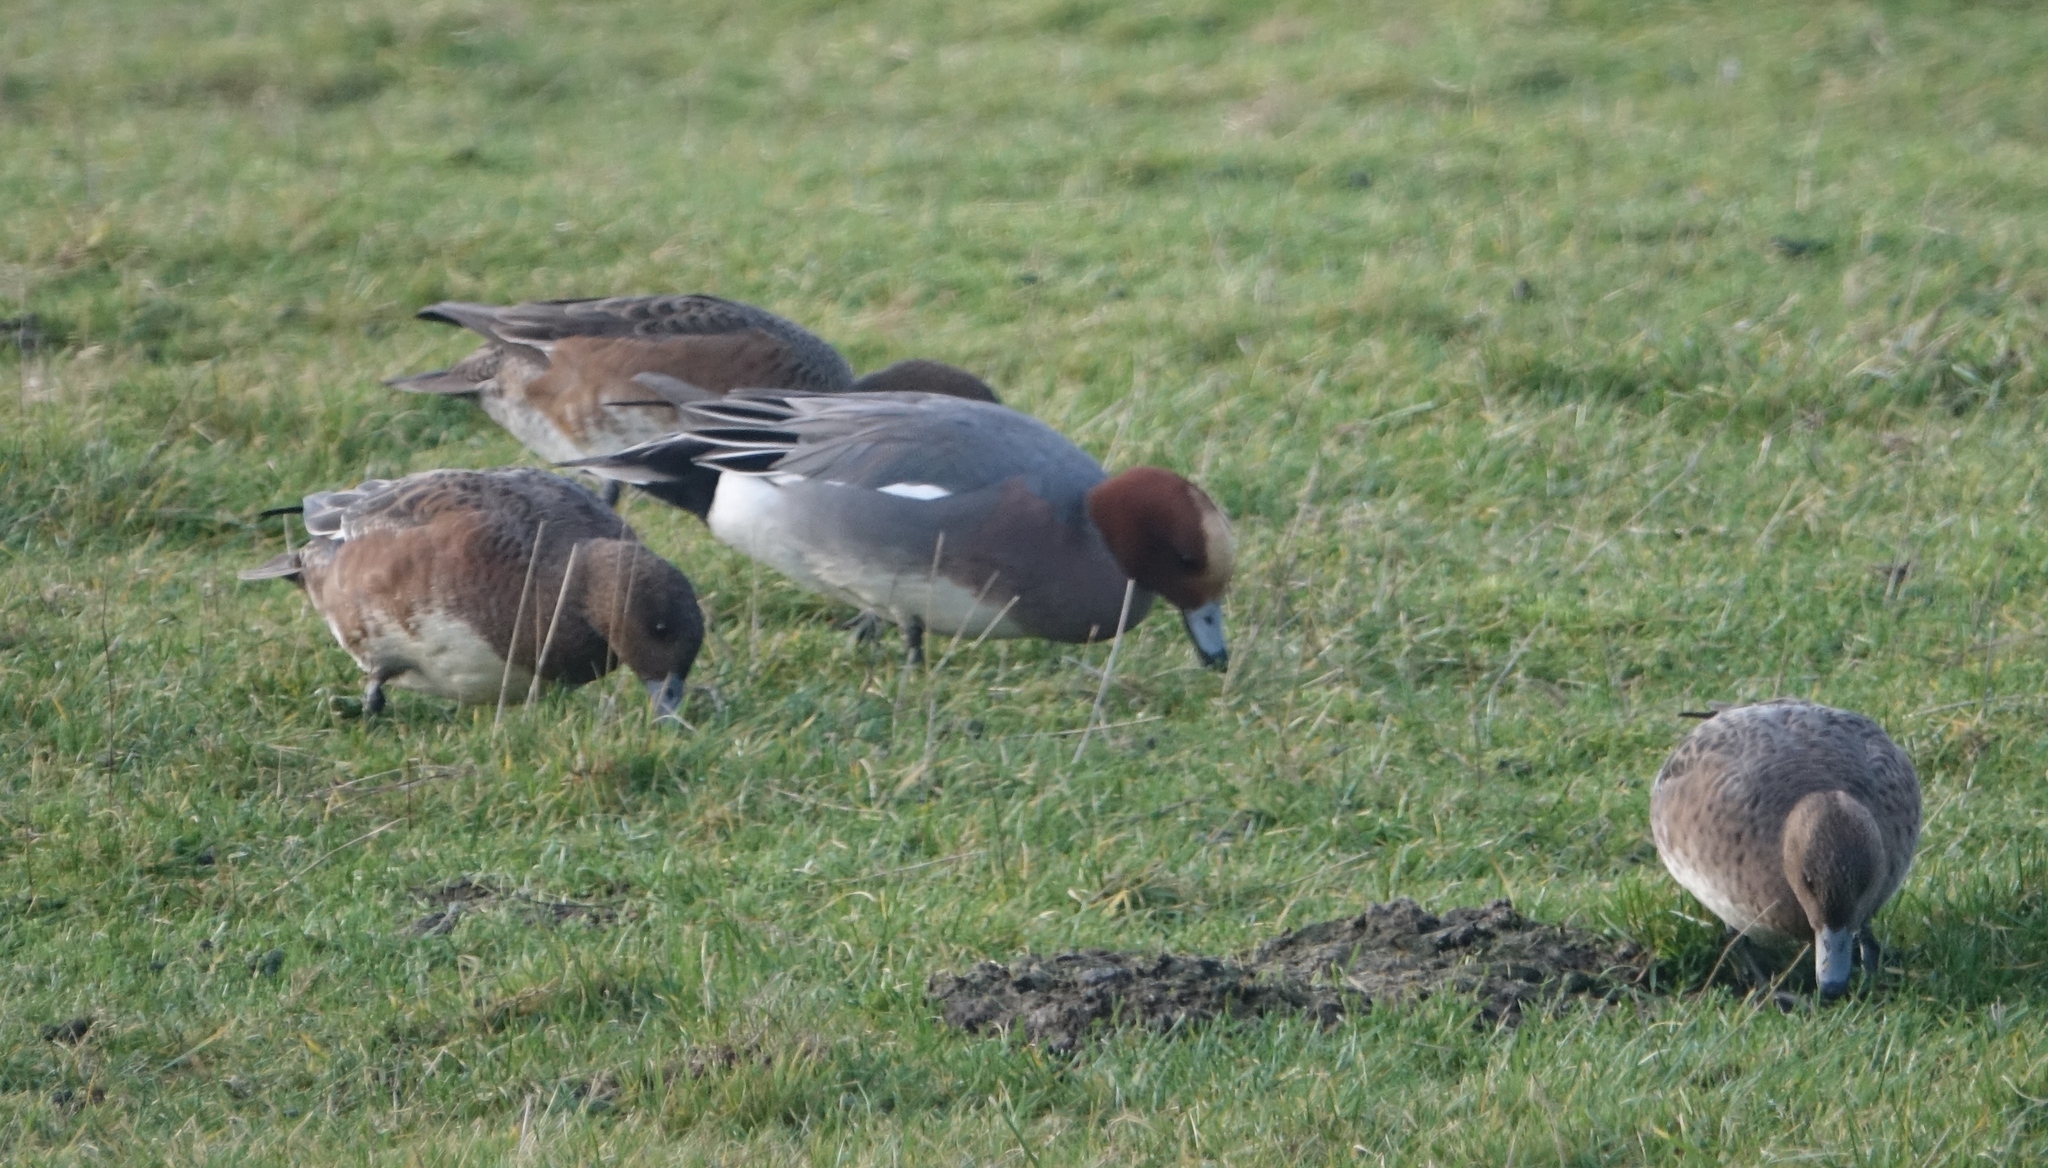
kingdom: Animalia
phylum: Chordata
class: Aves
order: Anseriformes
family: Anatidae
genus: Mareca
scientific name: Mareca penelope
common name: Eurasian wigeon
